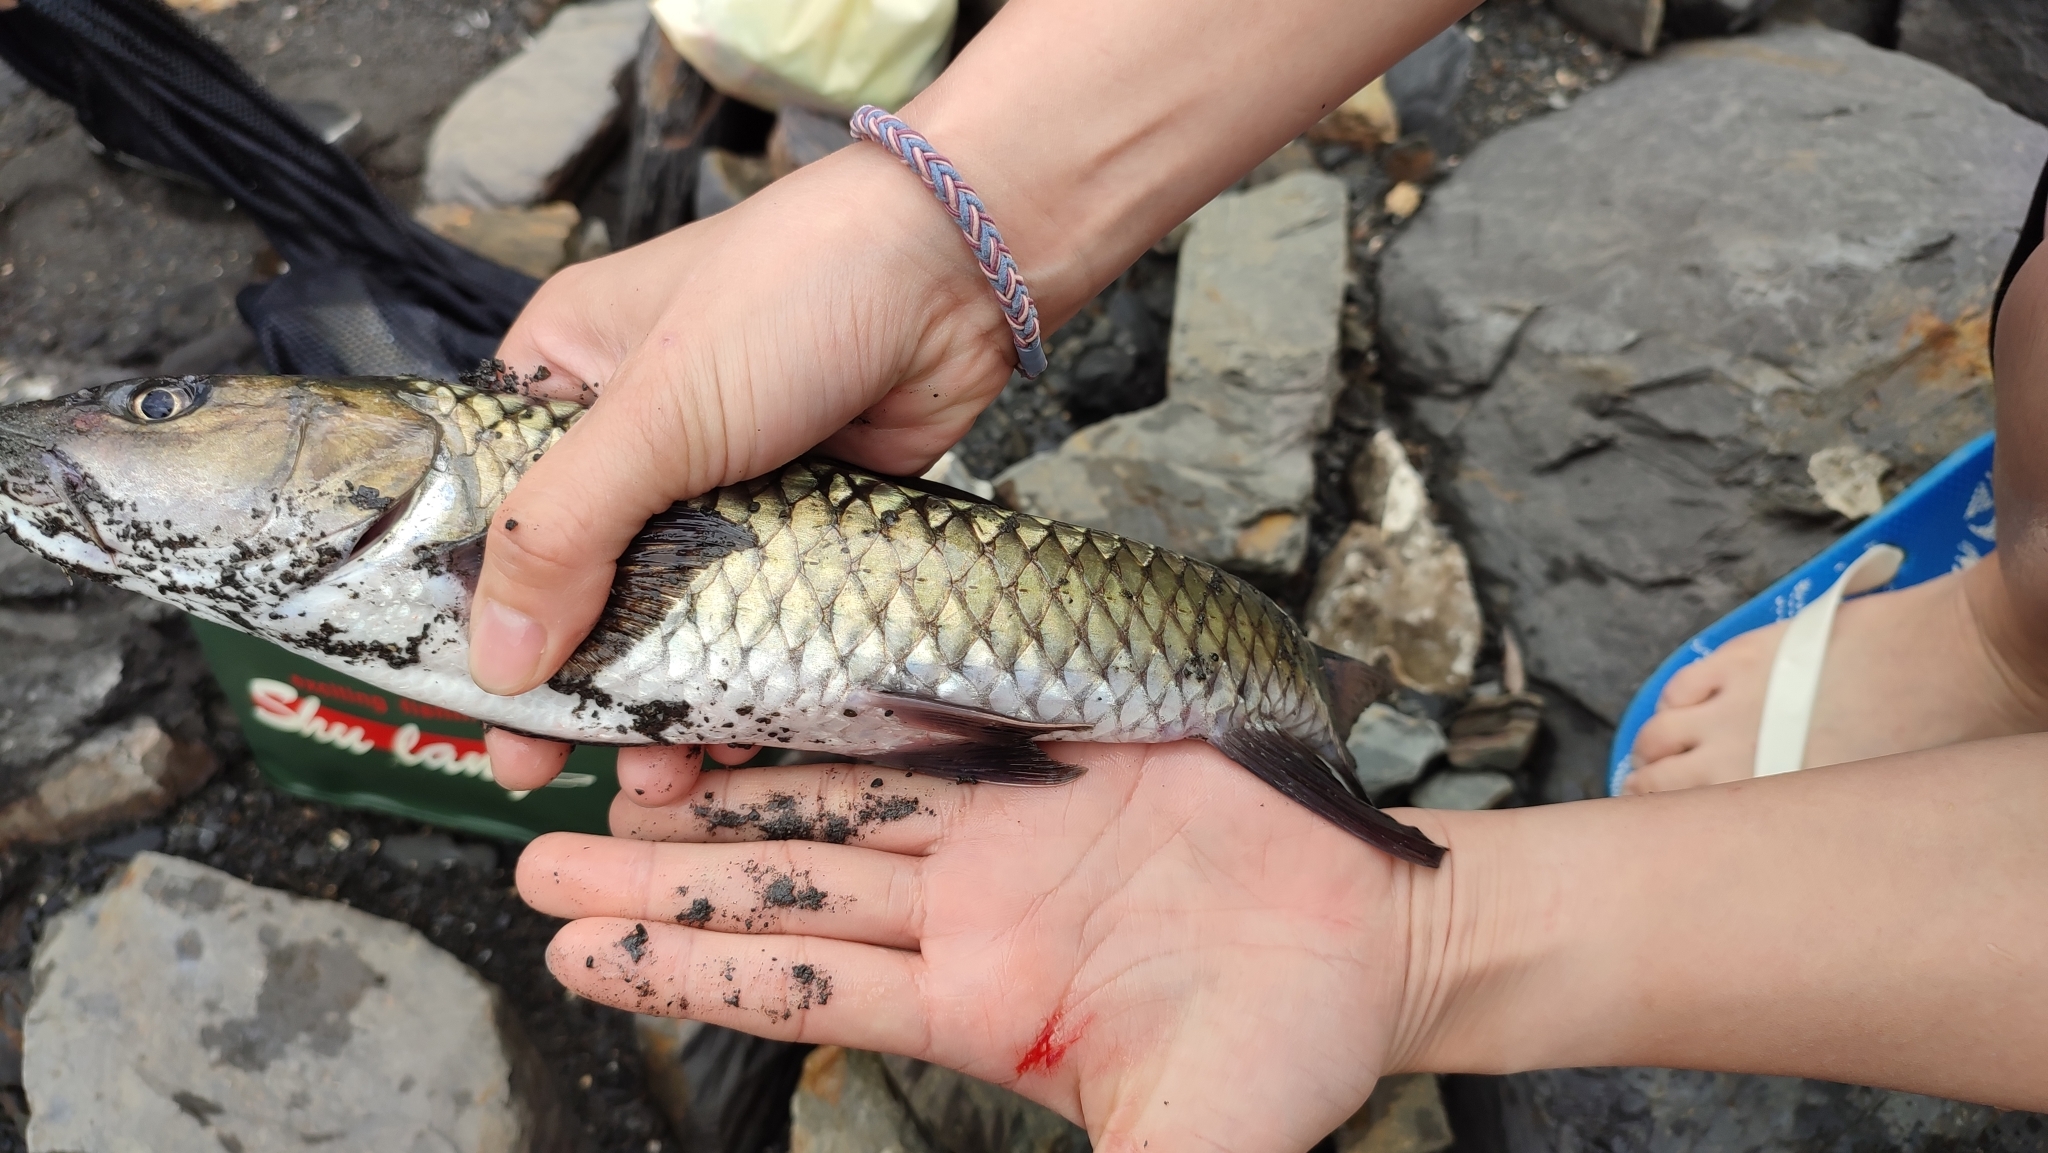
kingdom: Animalia
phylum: Chordata
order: Cypriniformes
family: Cyprinidae
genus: Spinibarbus
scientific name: Spinibarbus hollandi
